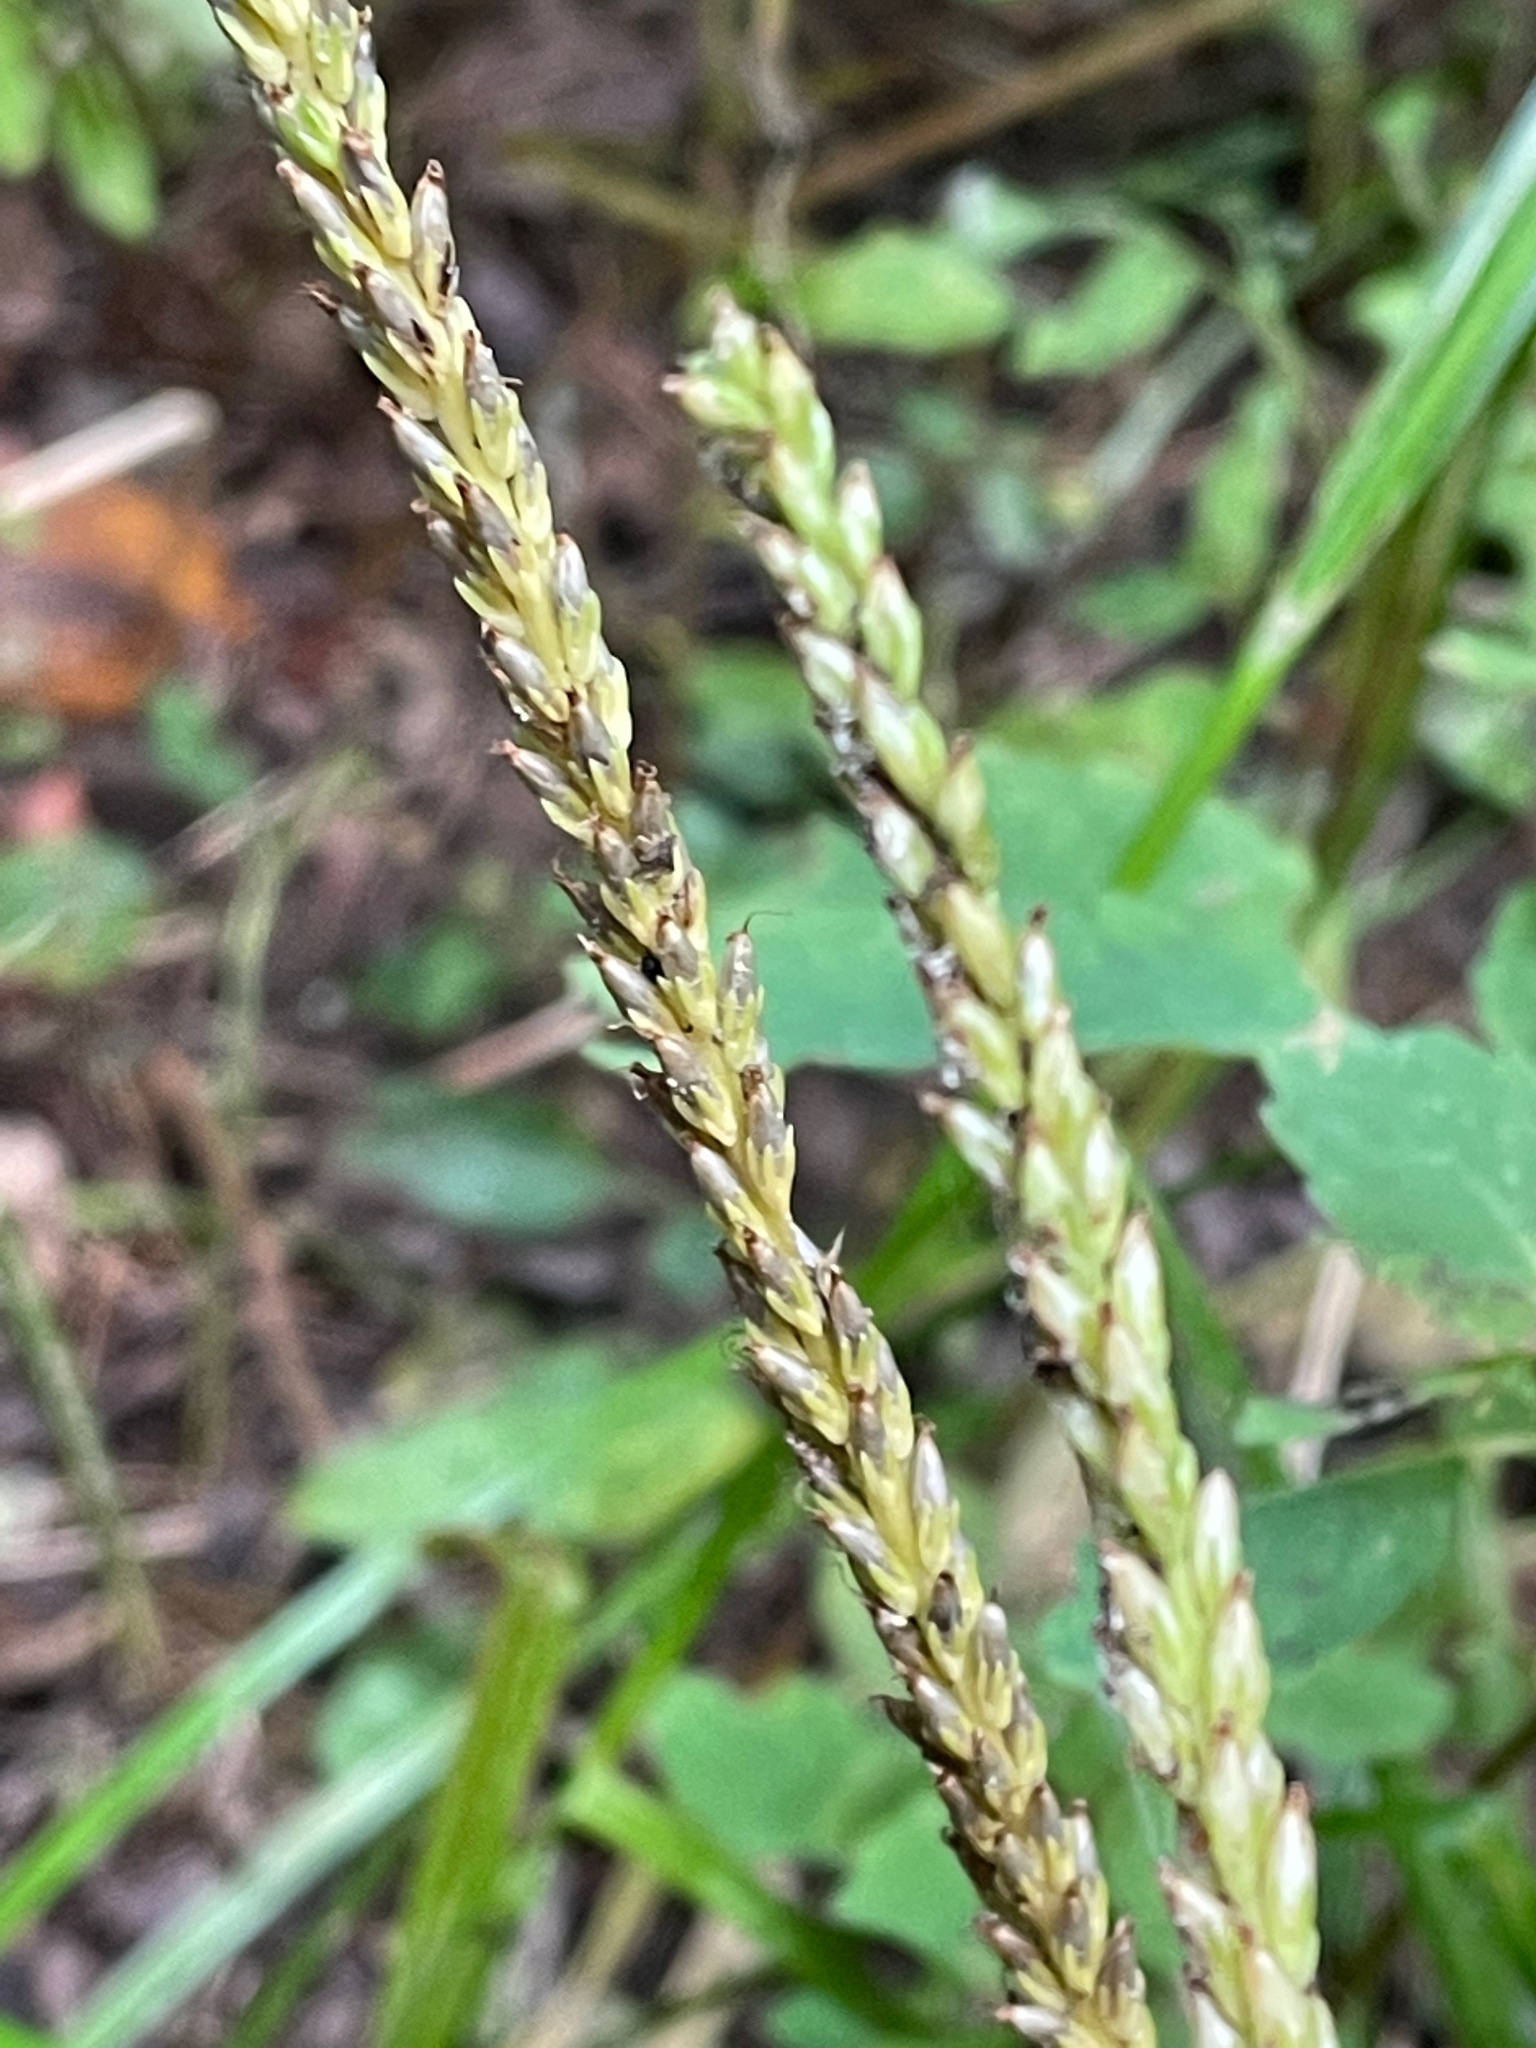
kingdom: Plantae
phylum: Tracheophyta
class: Magnoliopsida
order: Lamiales
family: Plantaginaceae
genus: Plantago
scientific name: Plantago rugelii
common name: American plantain
